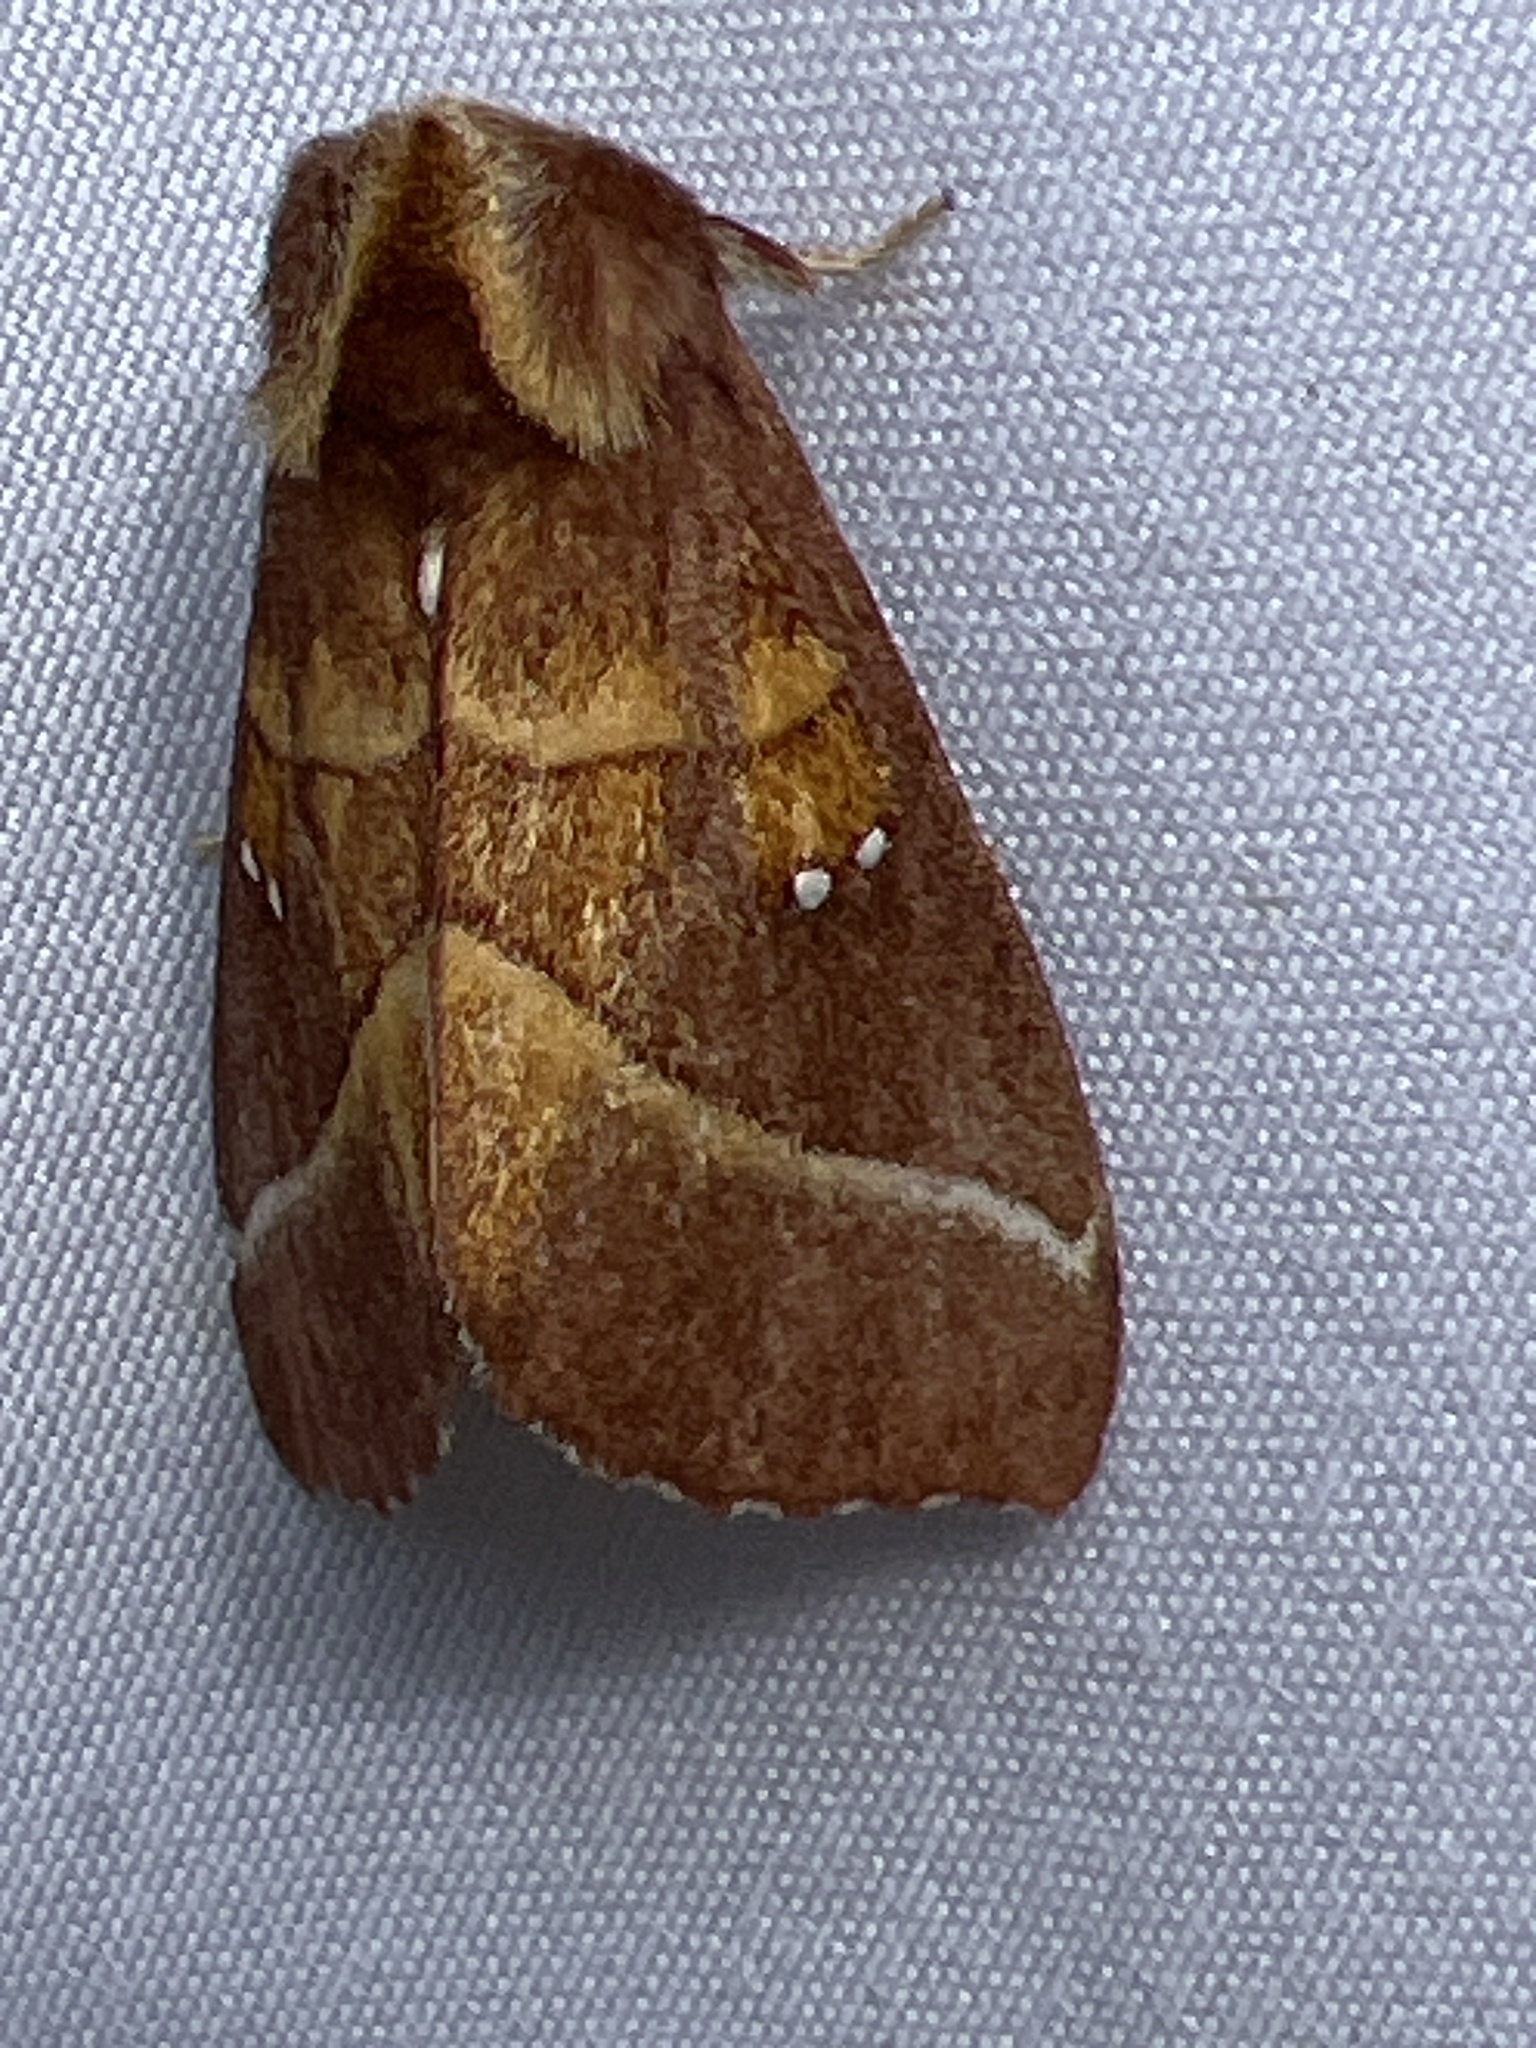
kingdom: Animalia
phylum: Arthropoda
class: Insecta
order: Lepidoptera
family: Notodontidae
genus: Nadata
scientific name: Nadata gibbosa
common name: White-dotted prominent
